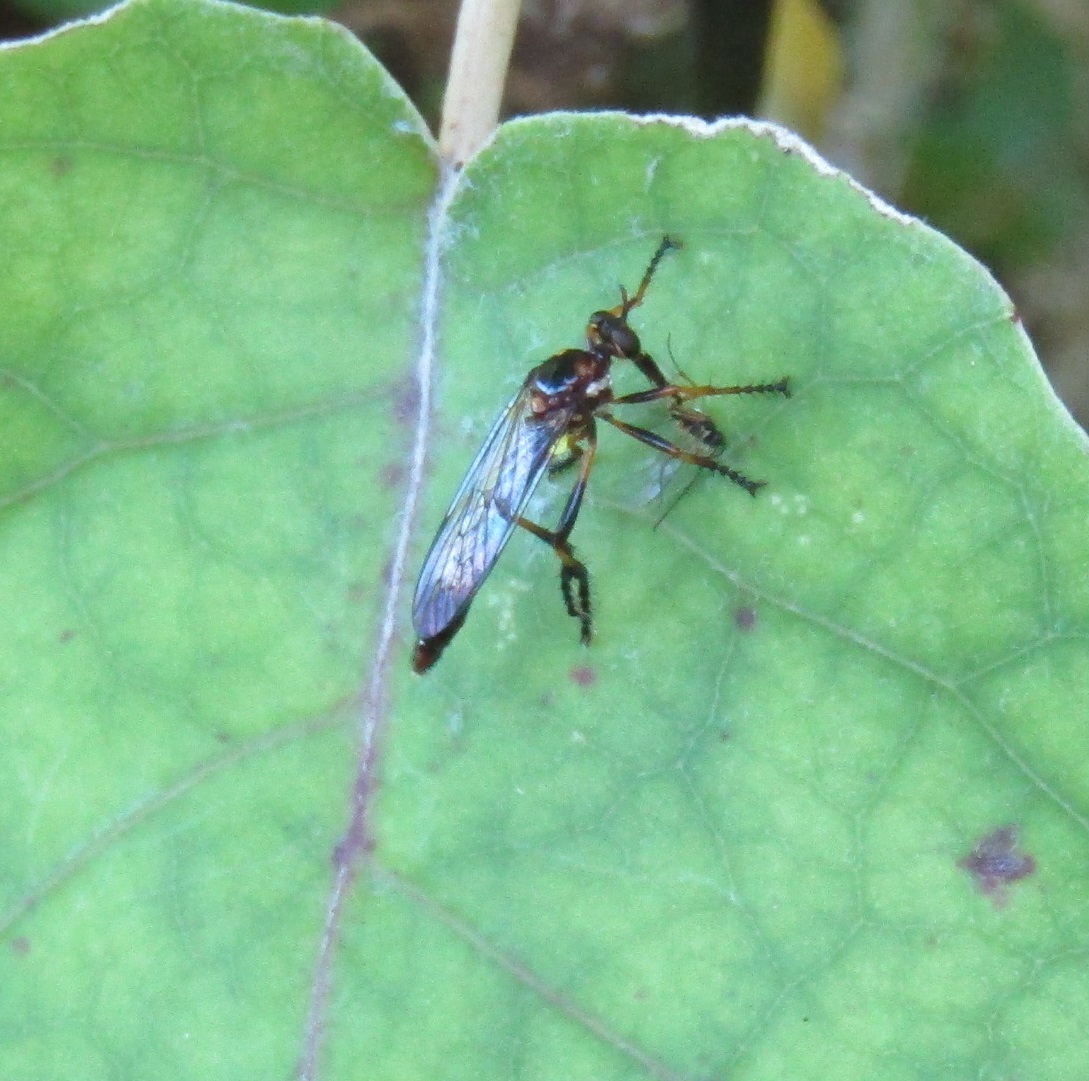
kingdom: Animalia
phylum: Arthropoda
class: Insecta
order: Diptera
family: Asilidae
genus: Saropogon
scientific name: Saropogon fascipes
